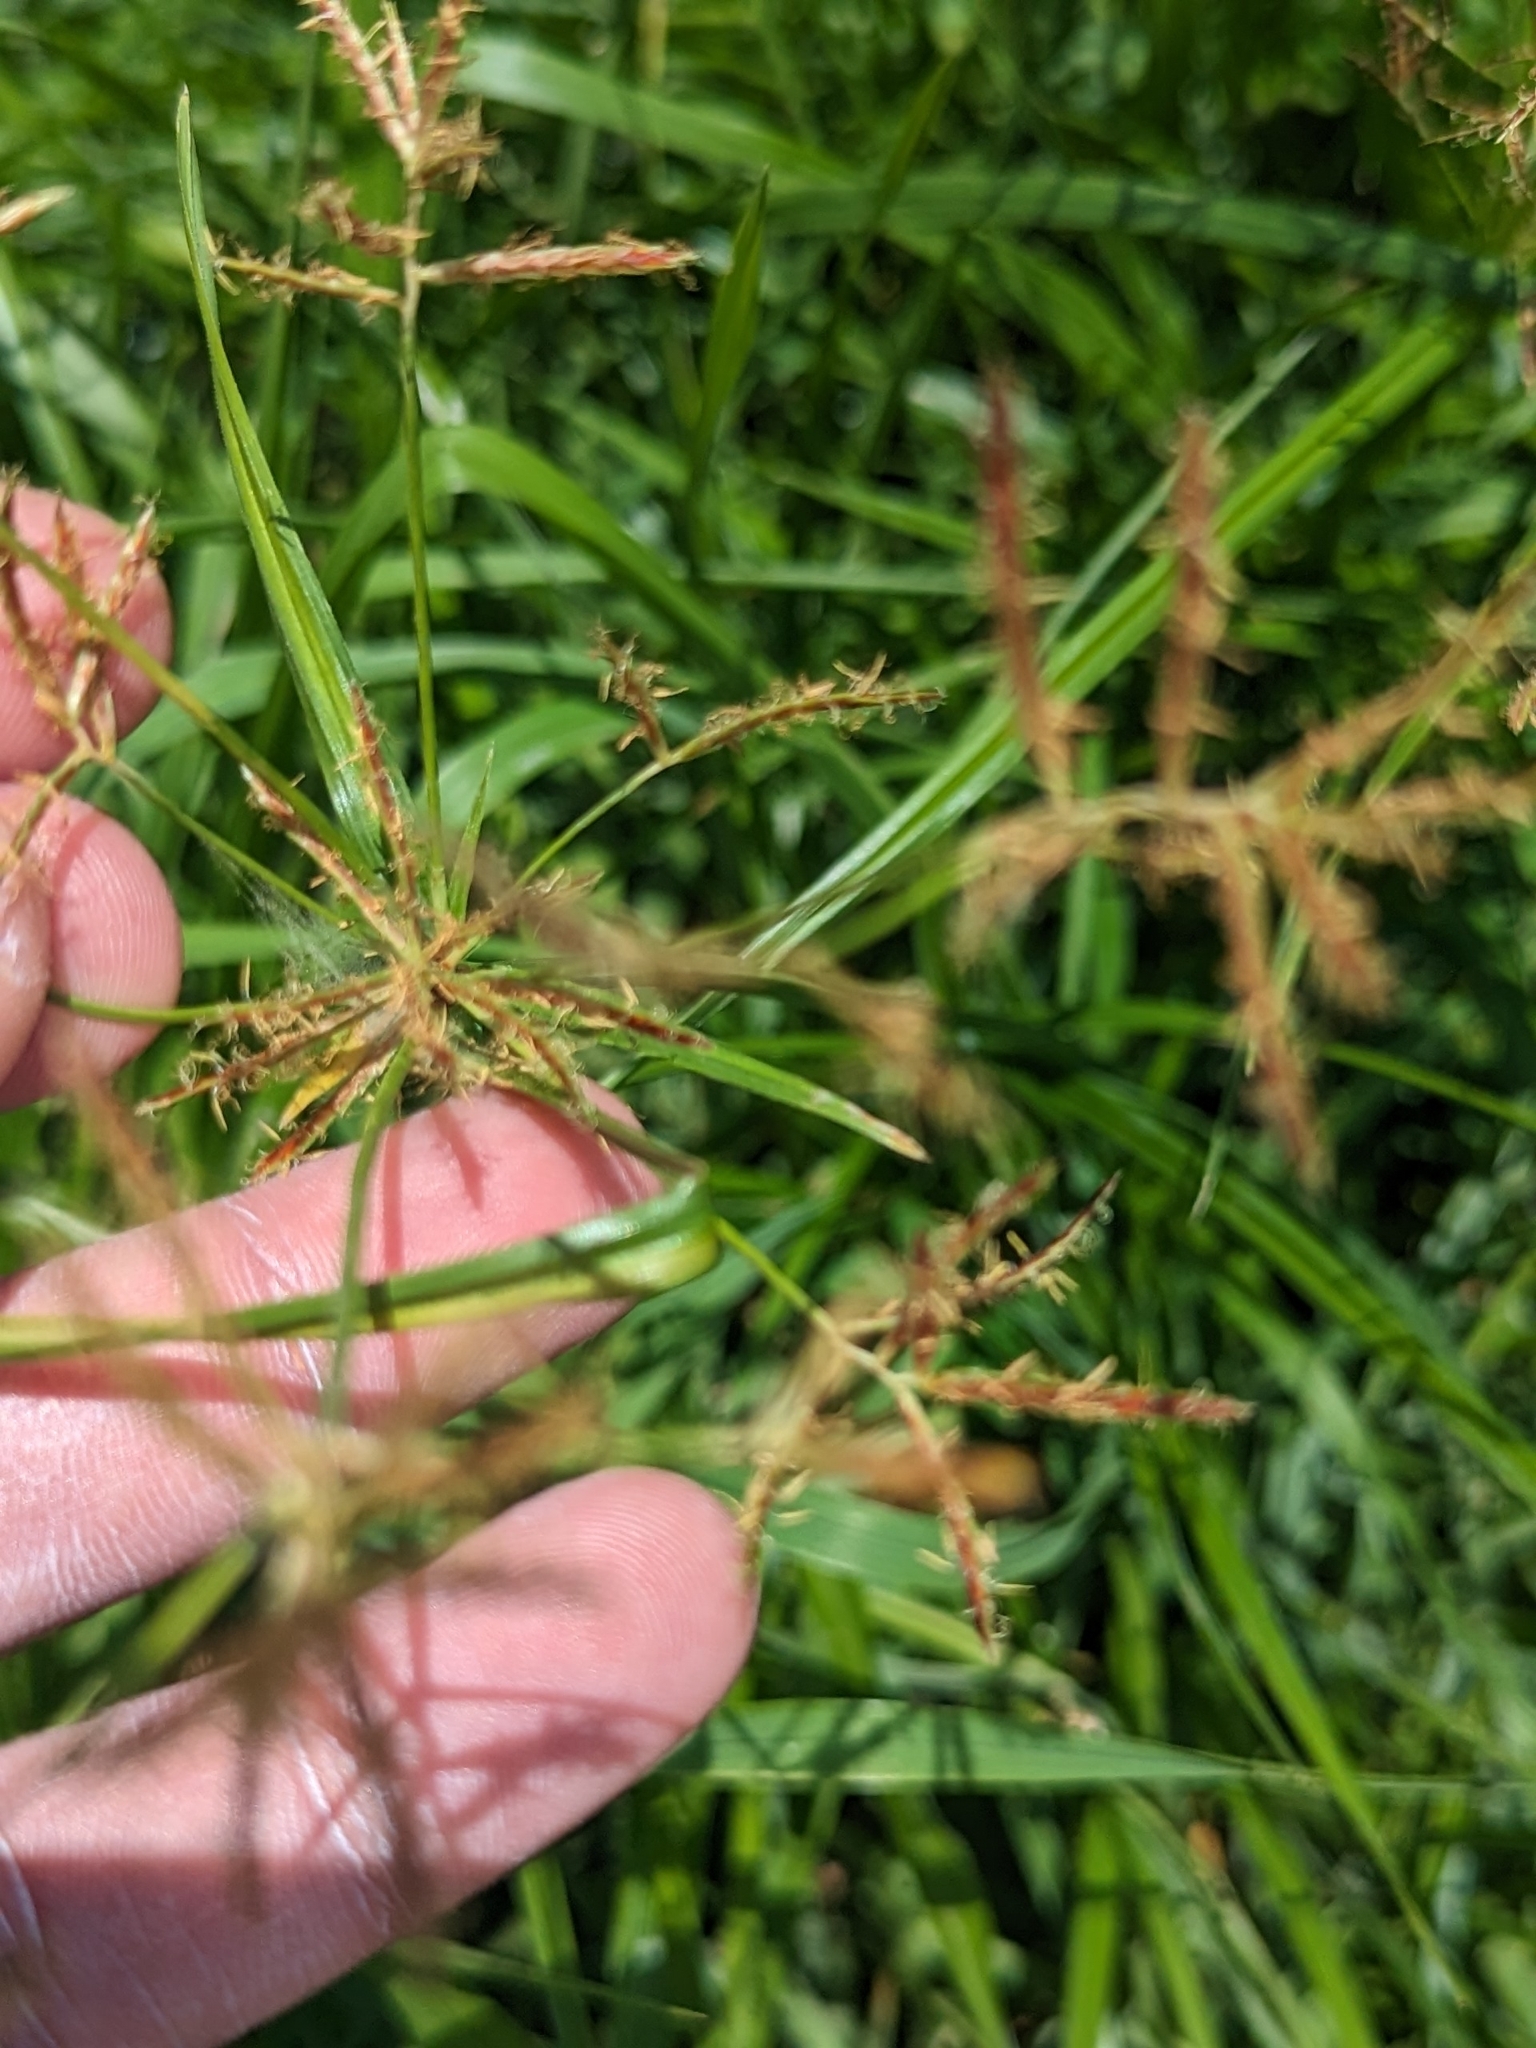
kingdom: Plantae
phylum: Tracheophyta
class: Liliopsida
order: Poales
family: Cyperaceae
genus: Cyperus
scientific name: Cyperus rotundus
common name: Nutgrass
